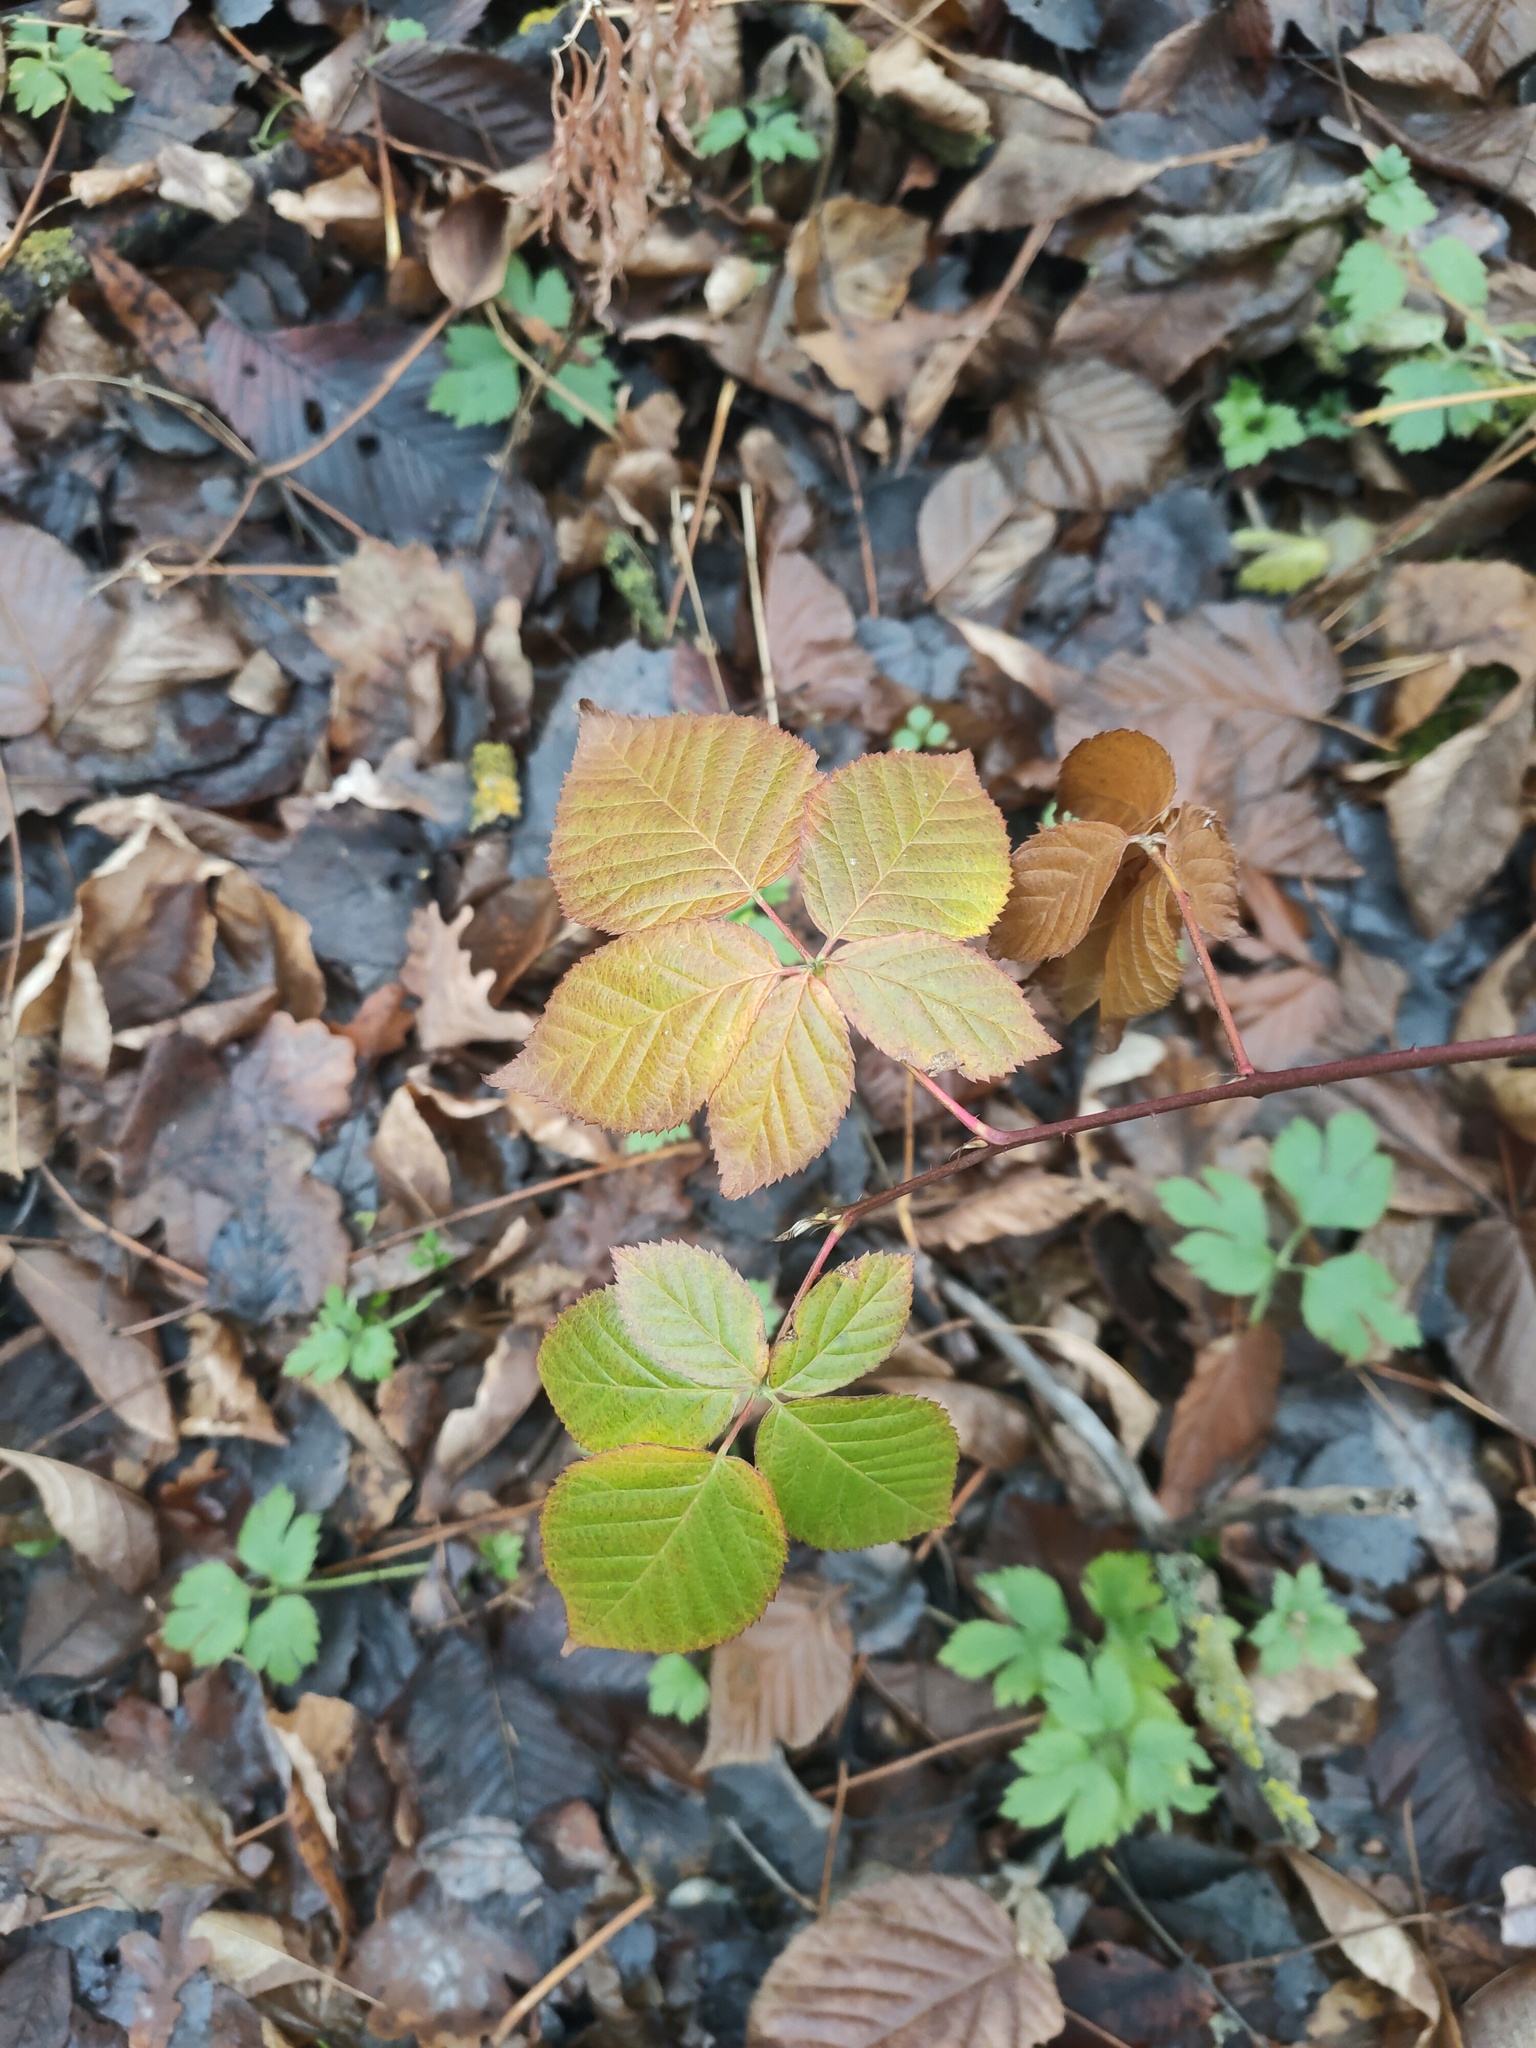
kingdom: Plantae
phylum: Tracheophyta
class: Magnoliopsida
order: Rosales
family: Rosaceae
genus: Rubus
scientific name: Rubus polonicus
